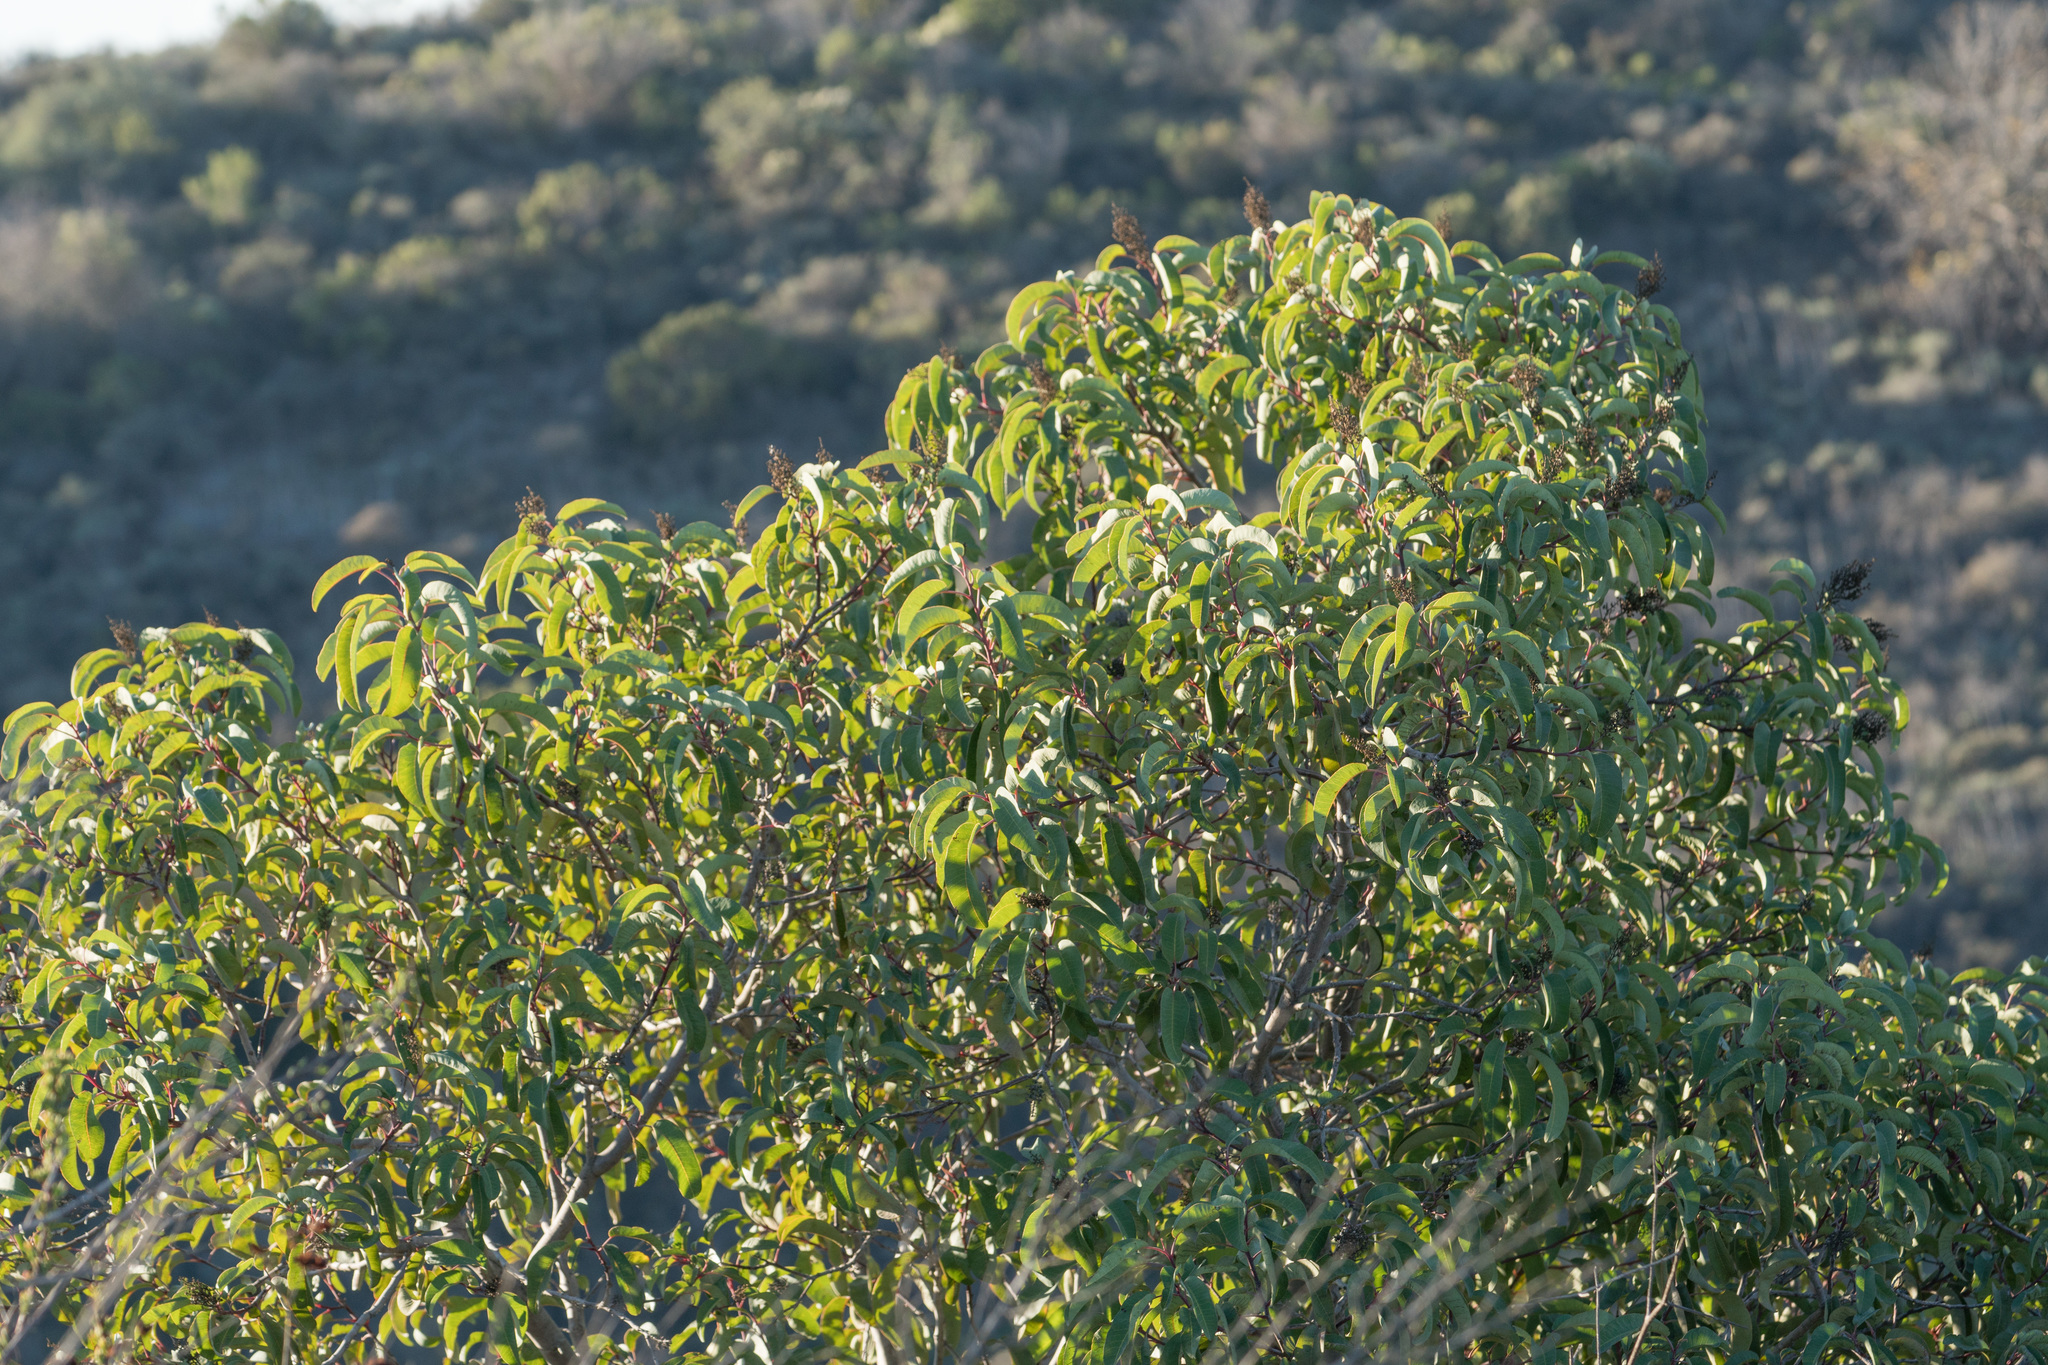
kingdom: Plantae
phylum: Tracheophyta
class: Magnoliopsida
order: Sapindales
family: Anacardiaceae
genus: Malosma
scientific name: Malosma laurina
